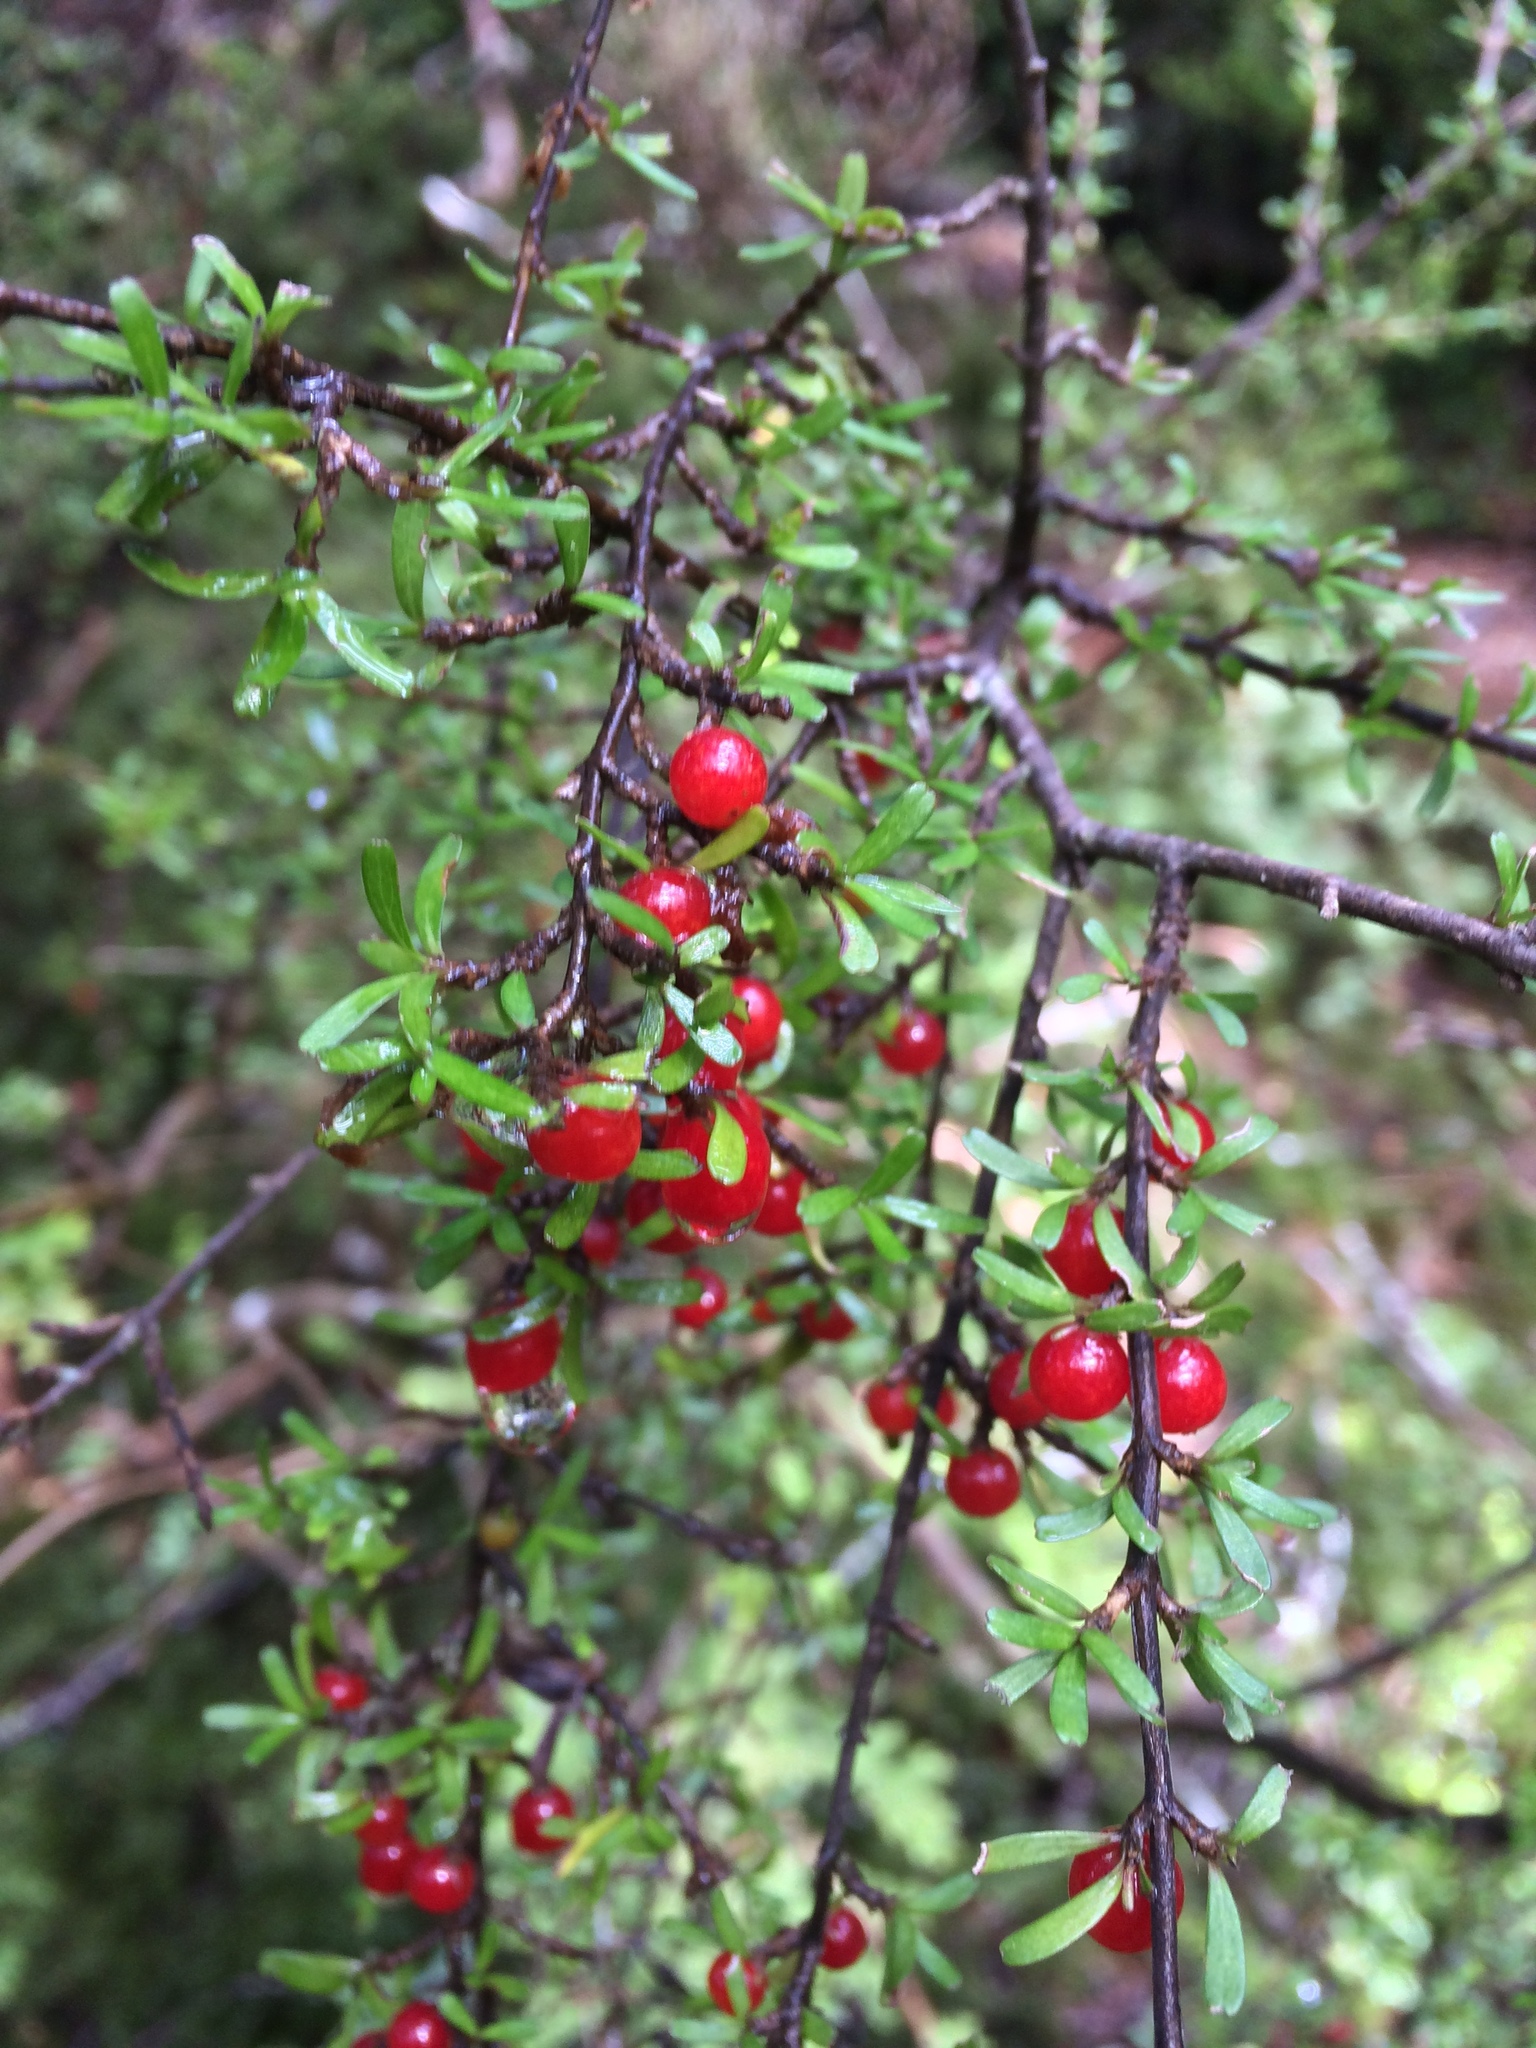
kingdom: Plantae
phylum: Tracheophyta
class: Magnoliopsida
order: Gentianales
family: Rubiaceae
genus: Coprosma
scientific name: Coprosma cuneata
